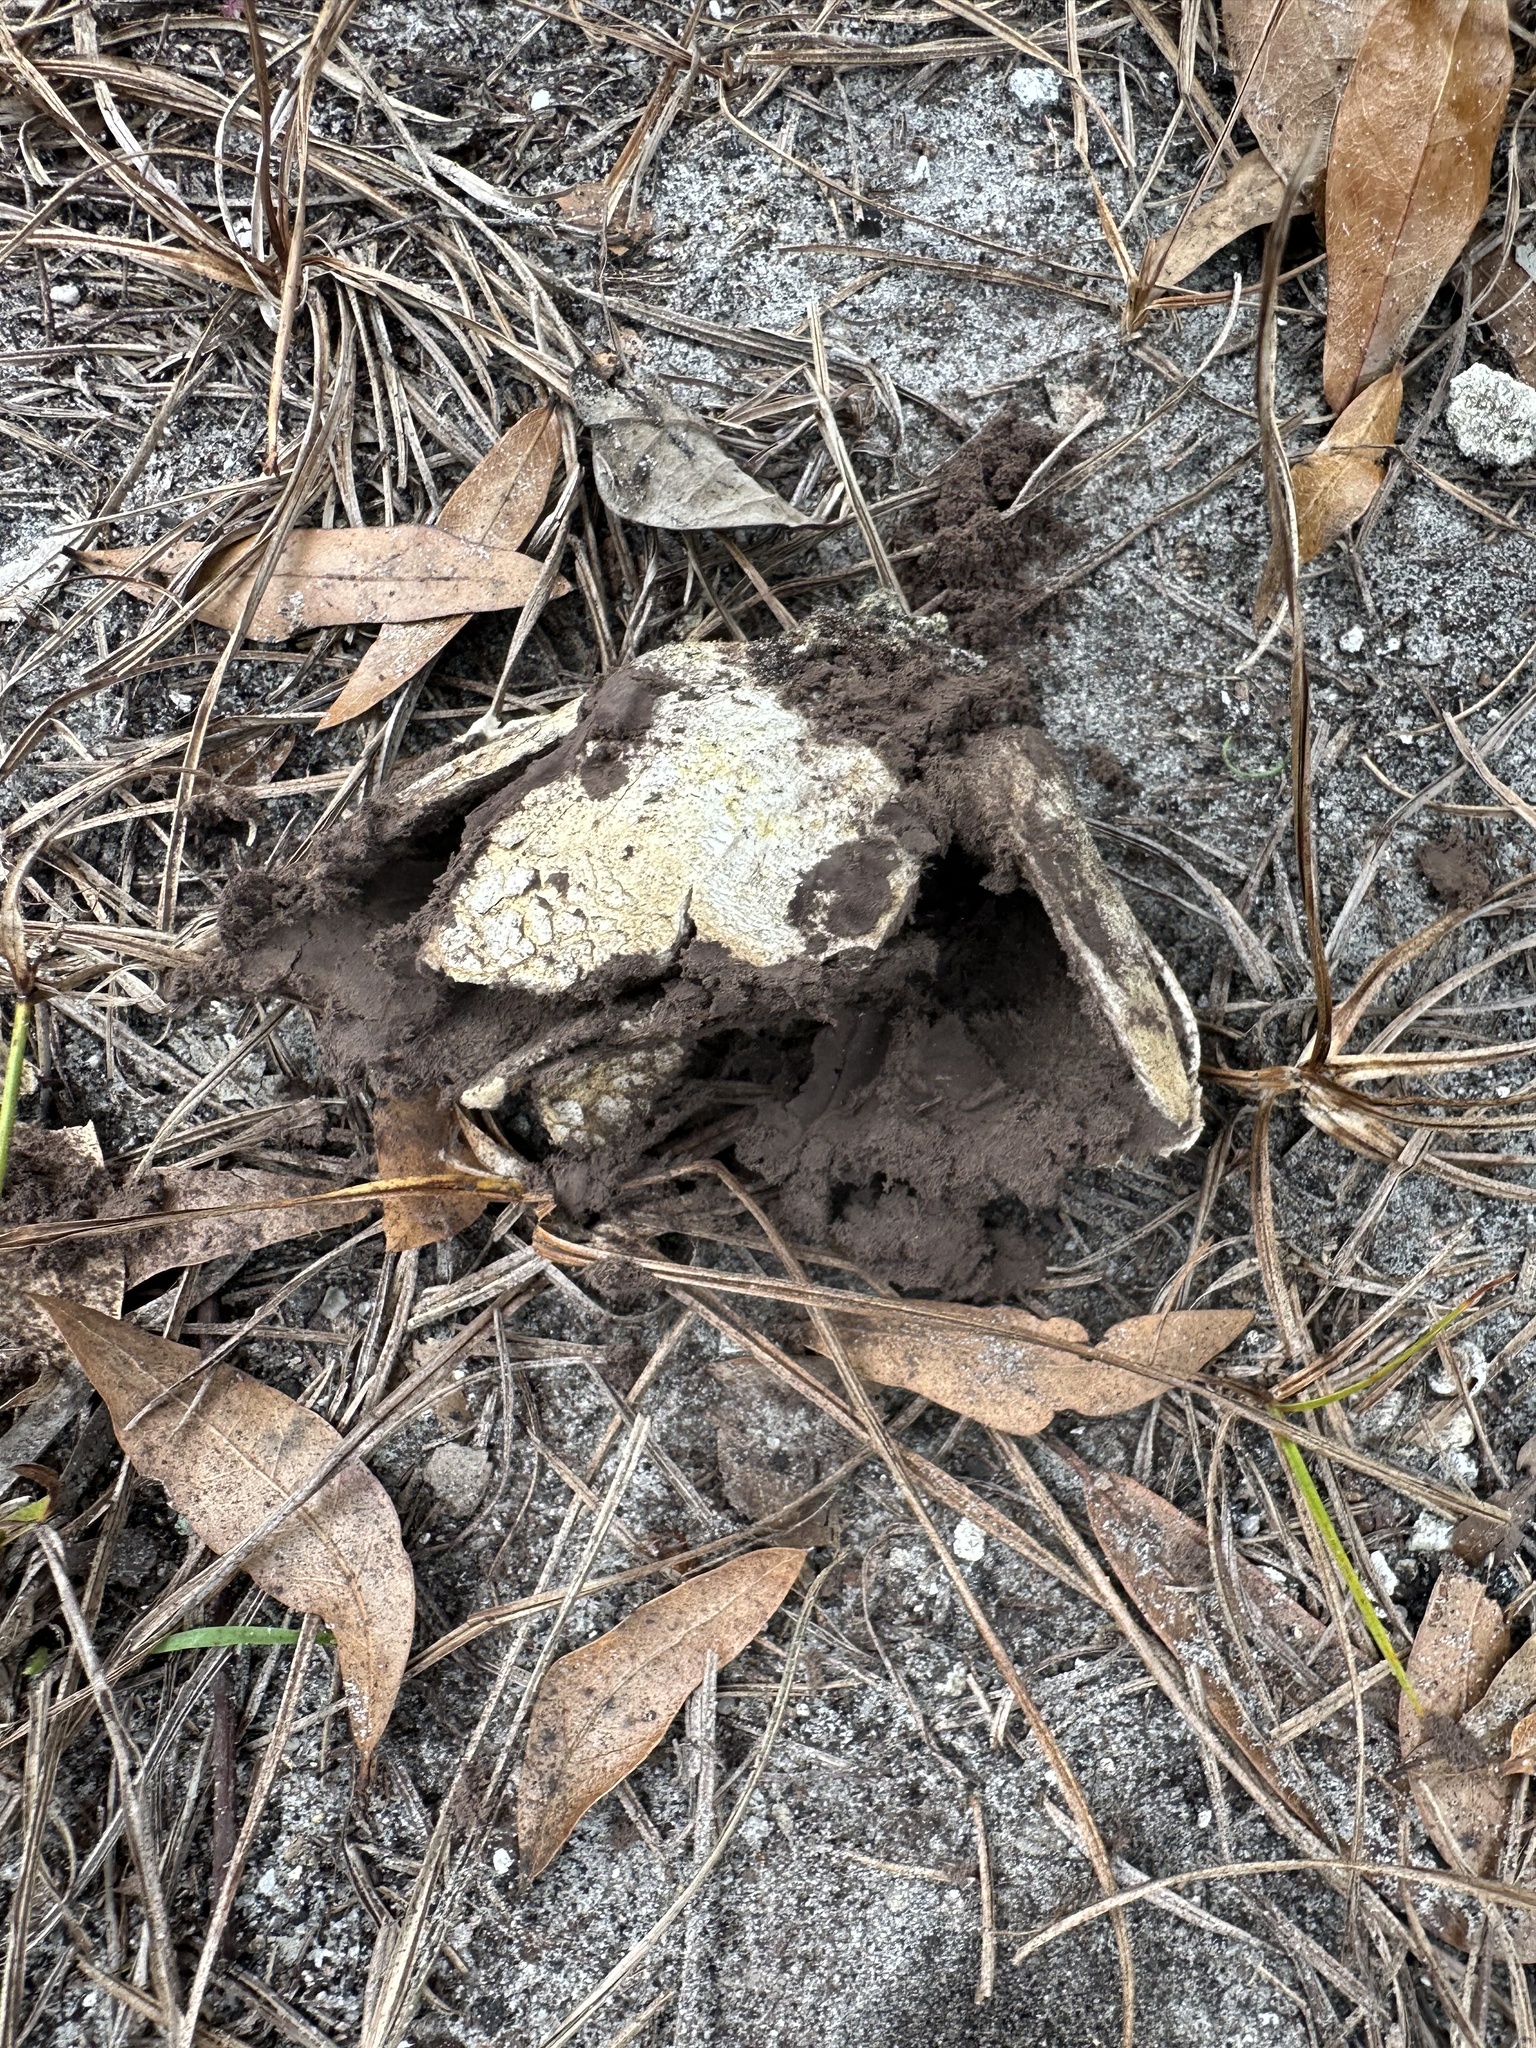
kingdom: Fungi
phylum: Basidiomycota
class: Agaricomycetes
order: Boletales
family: Sclerodermataceae
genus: Scleroderma
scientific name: Scleroderma polyrhizum
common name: Many-rooted earthball
